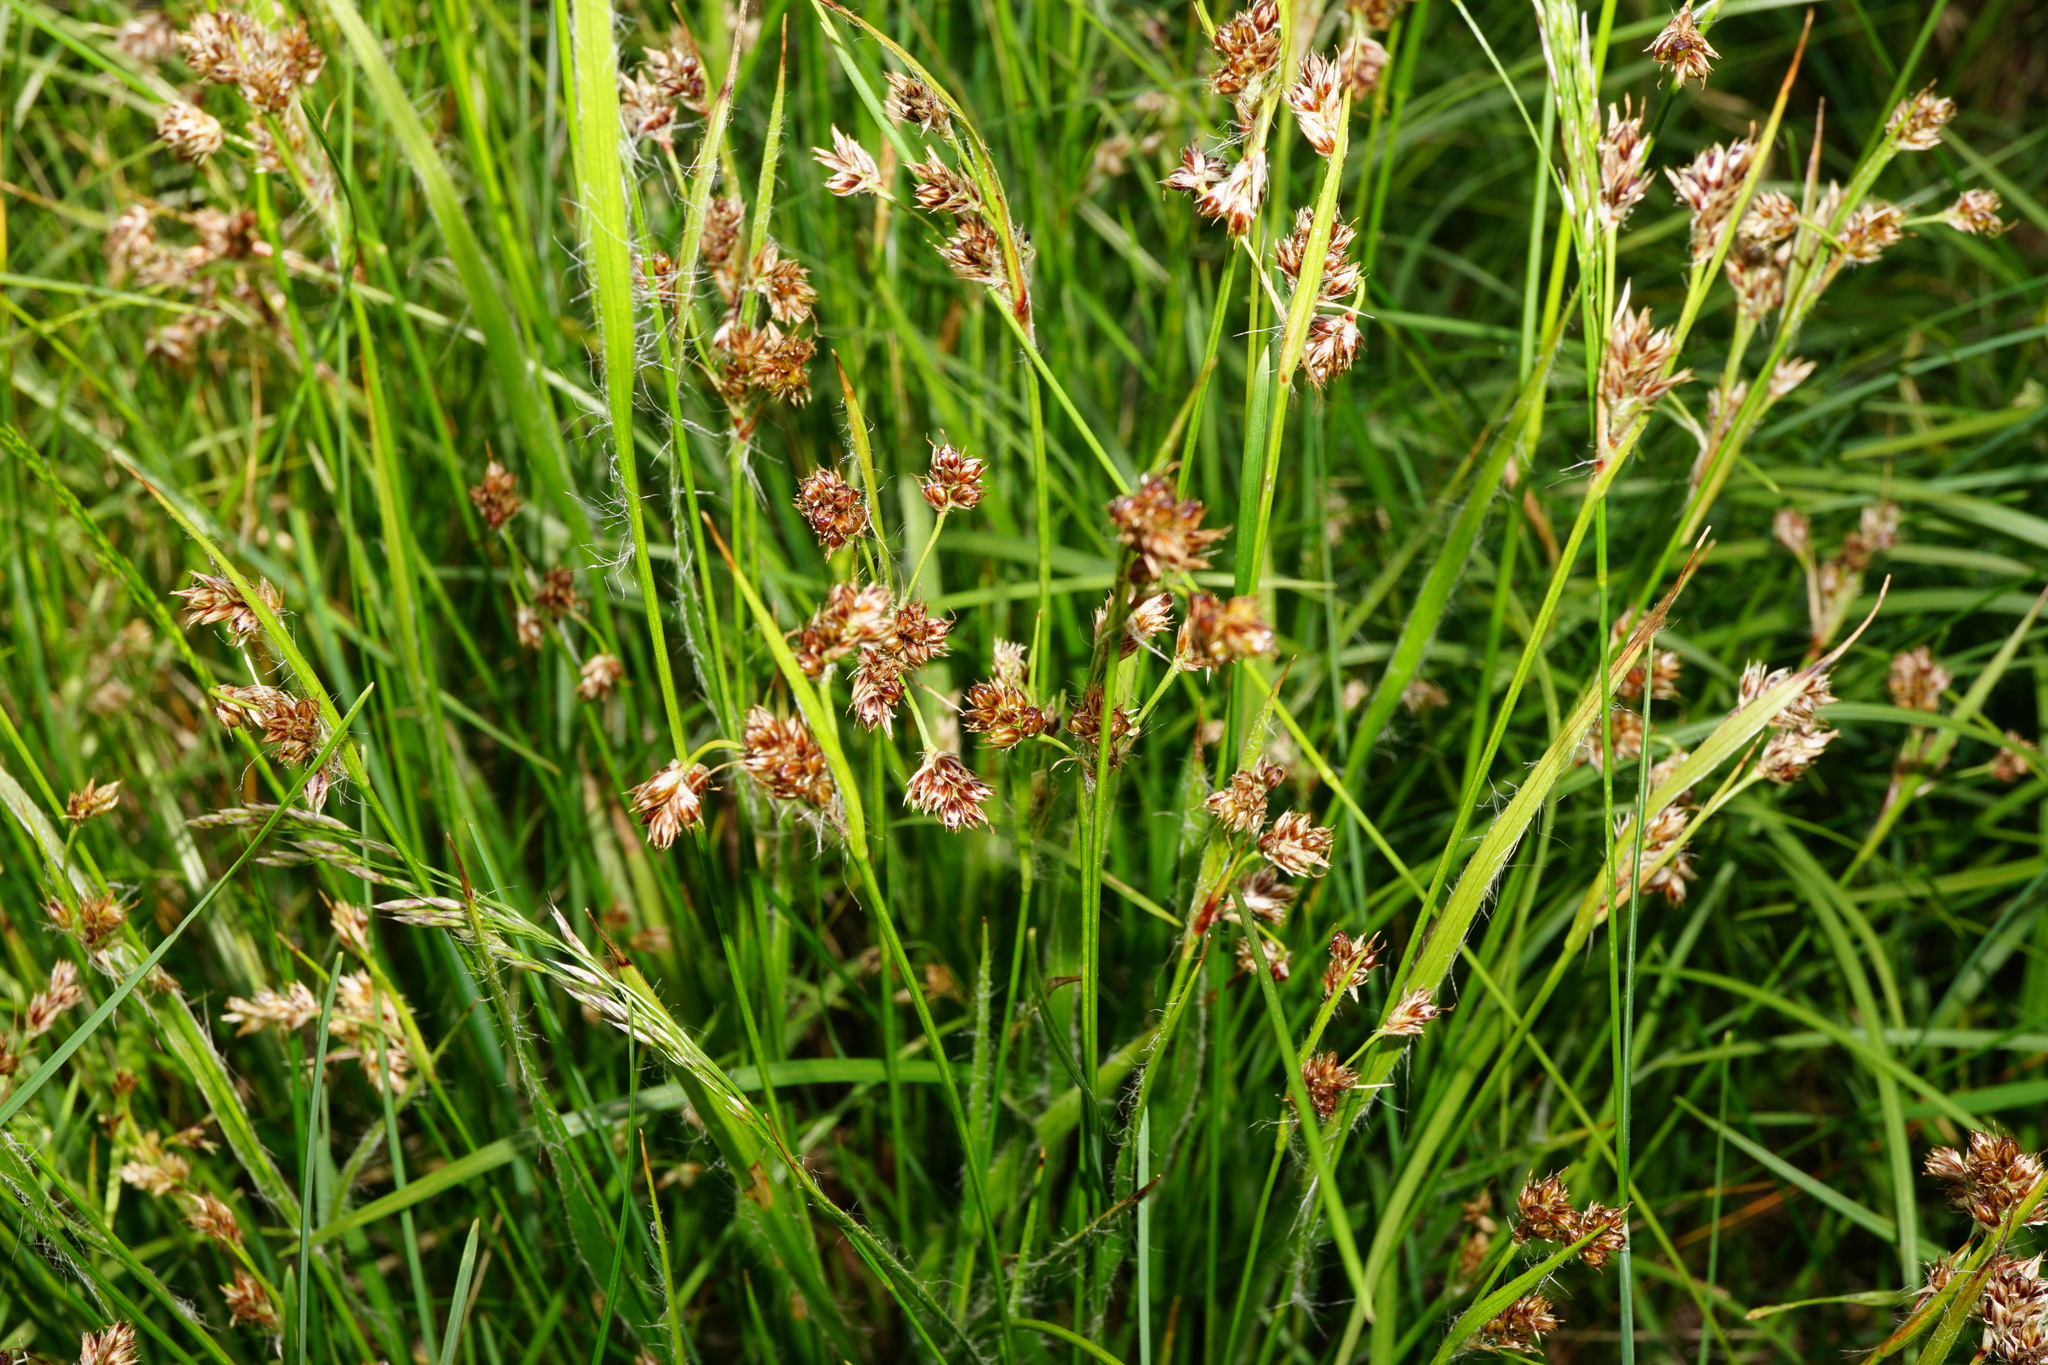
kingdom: Plantae
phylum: Tracheophyta
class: Liliopsida
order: Poales
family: Juncaceae
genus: Luzula
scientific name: Luzula divulgata
